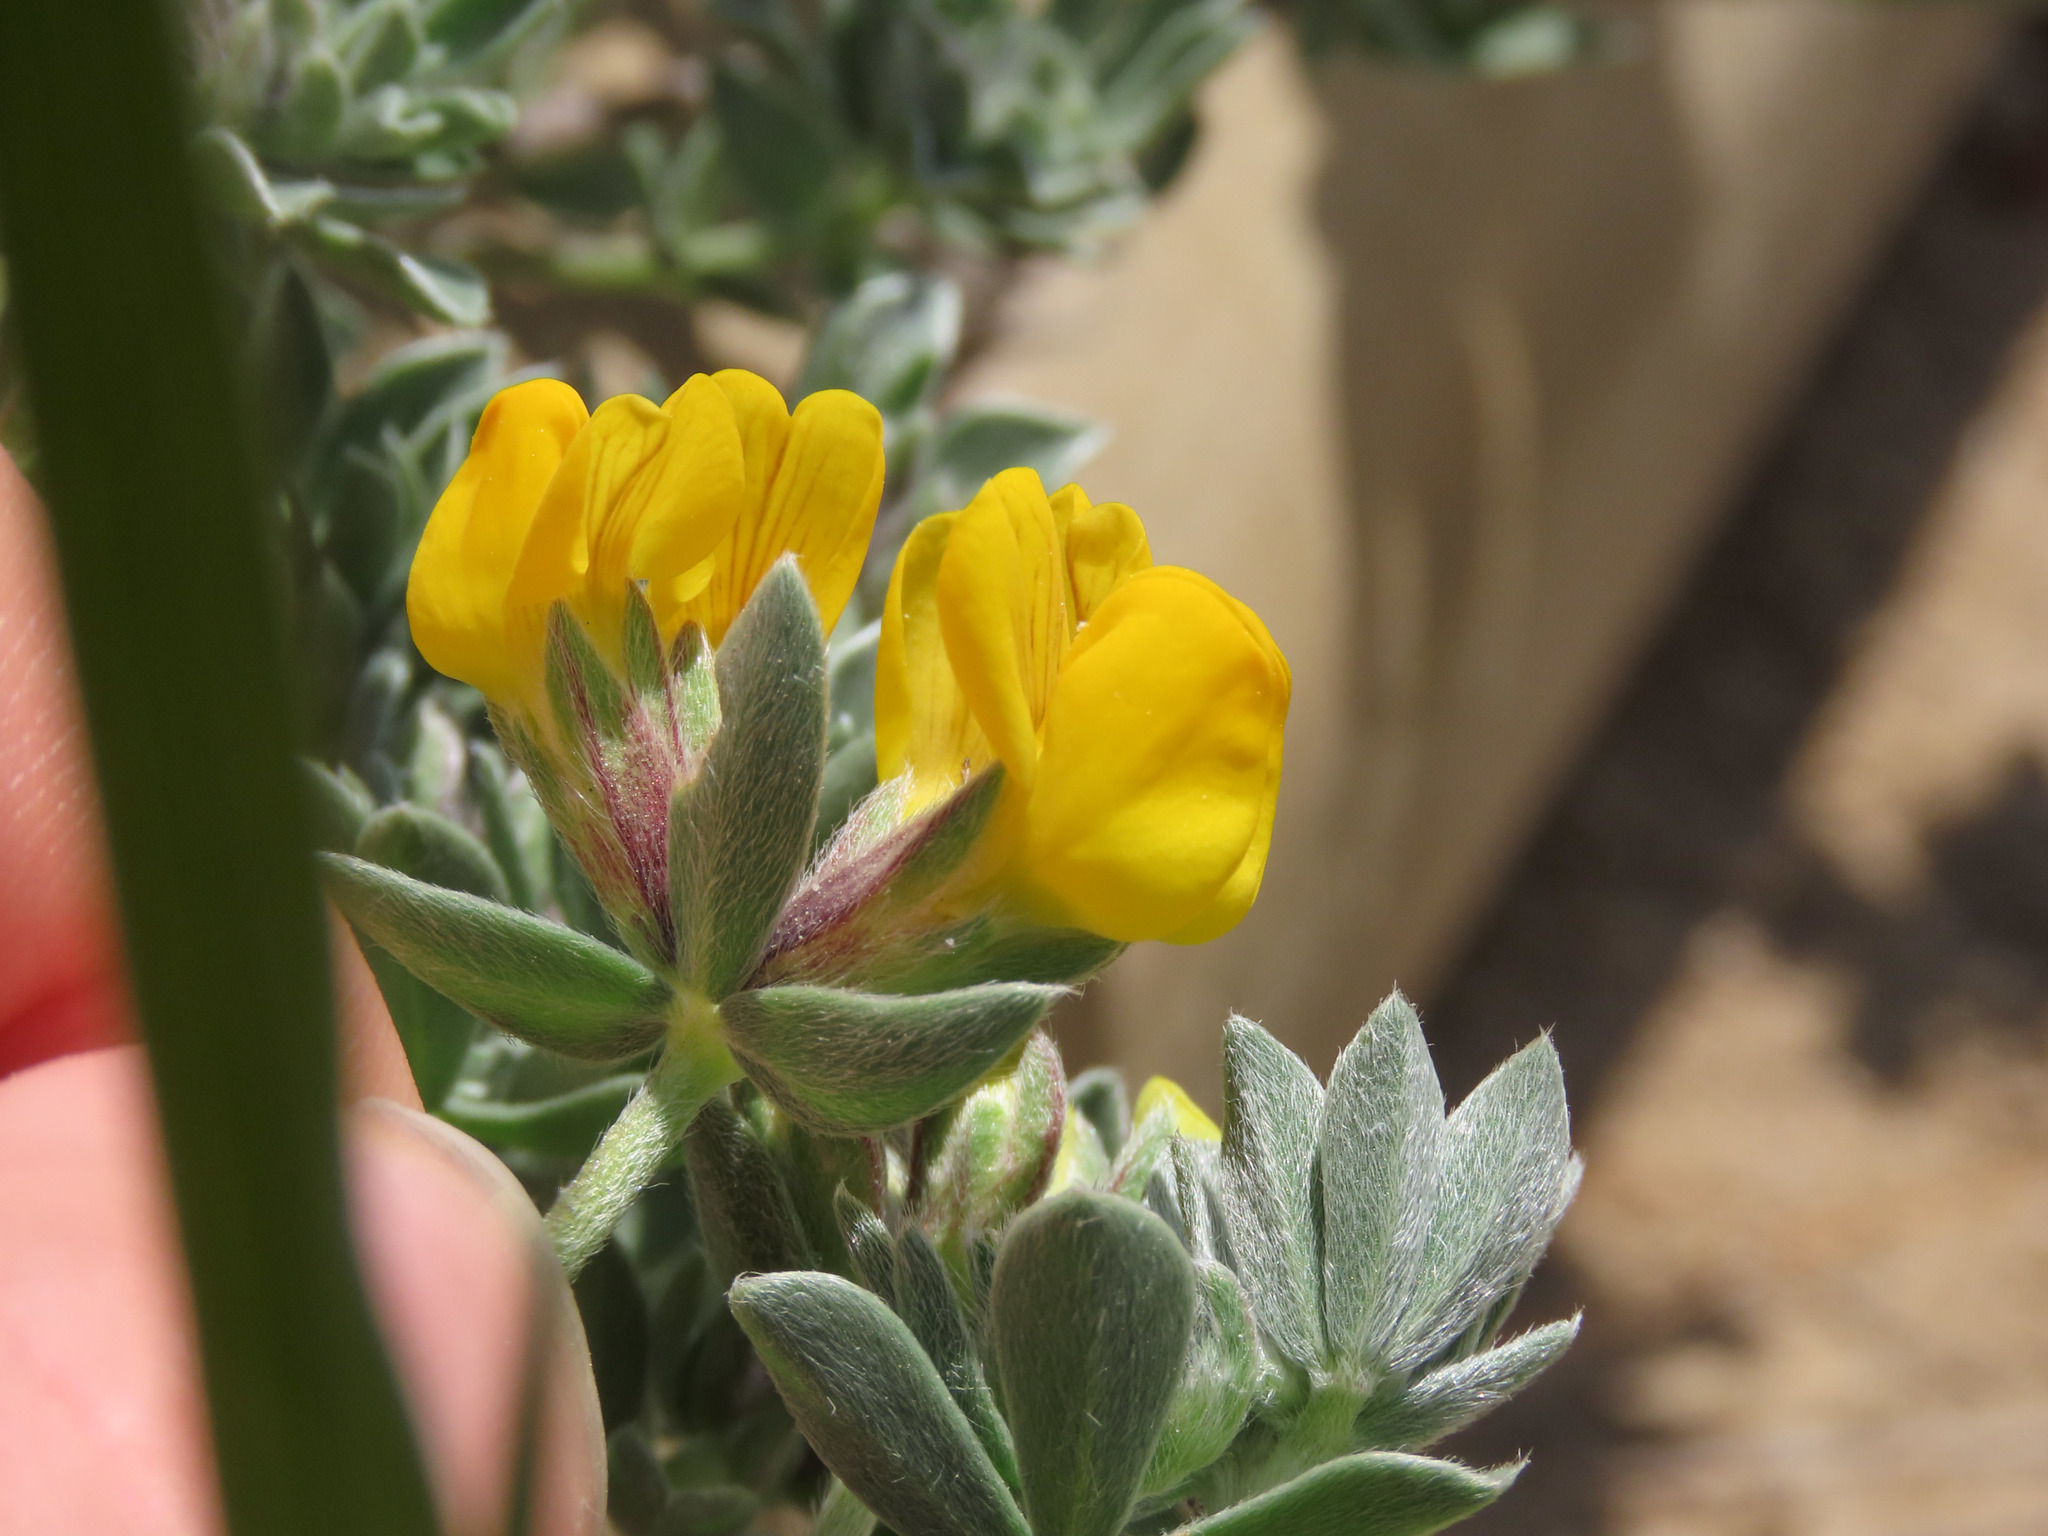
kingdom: Plantae
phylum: Tracheophyta
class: Magnoliopsida
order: Fabales
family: Fabaceae
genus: Lotus
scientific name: Lotus creticus
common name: Cretan bird's-foot trefoil
